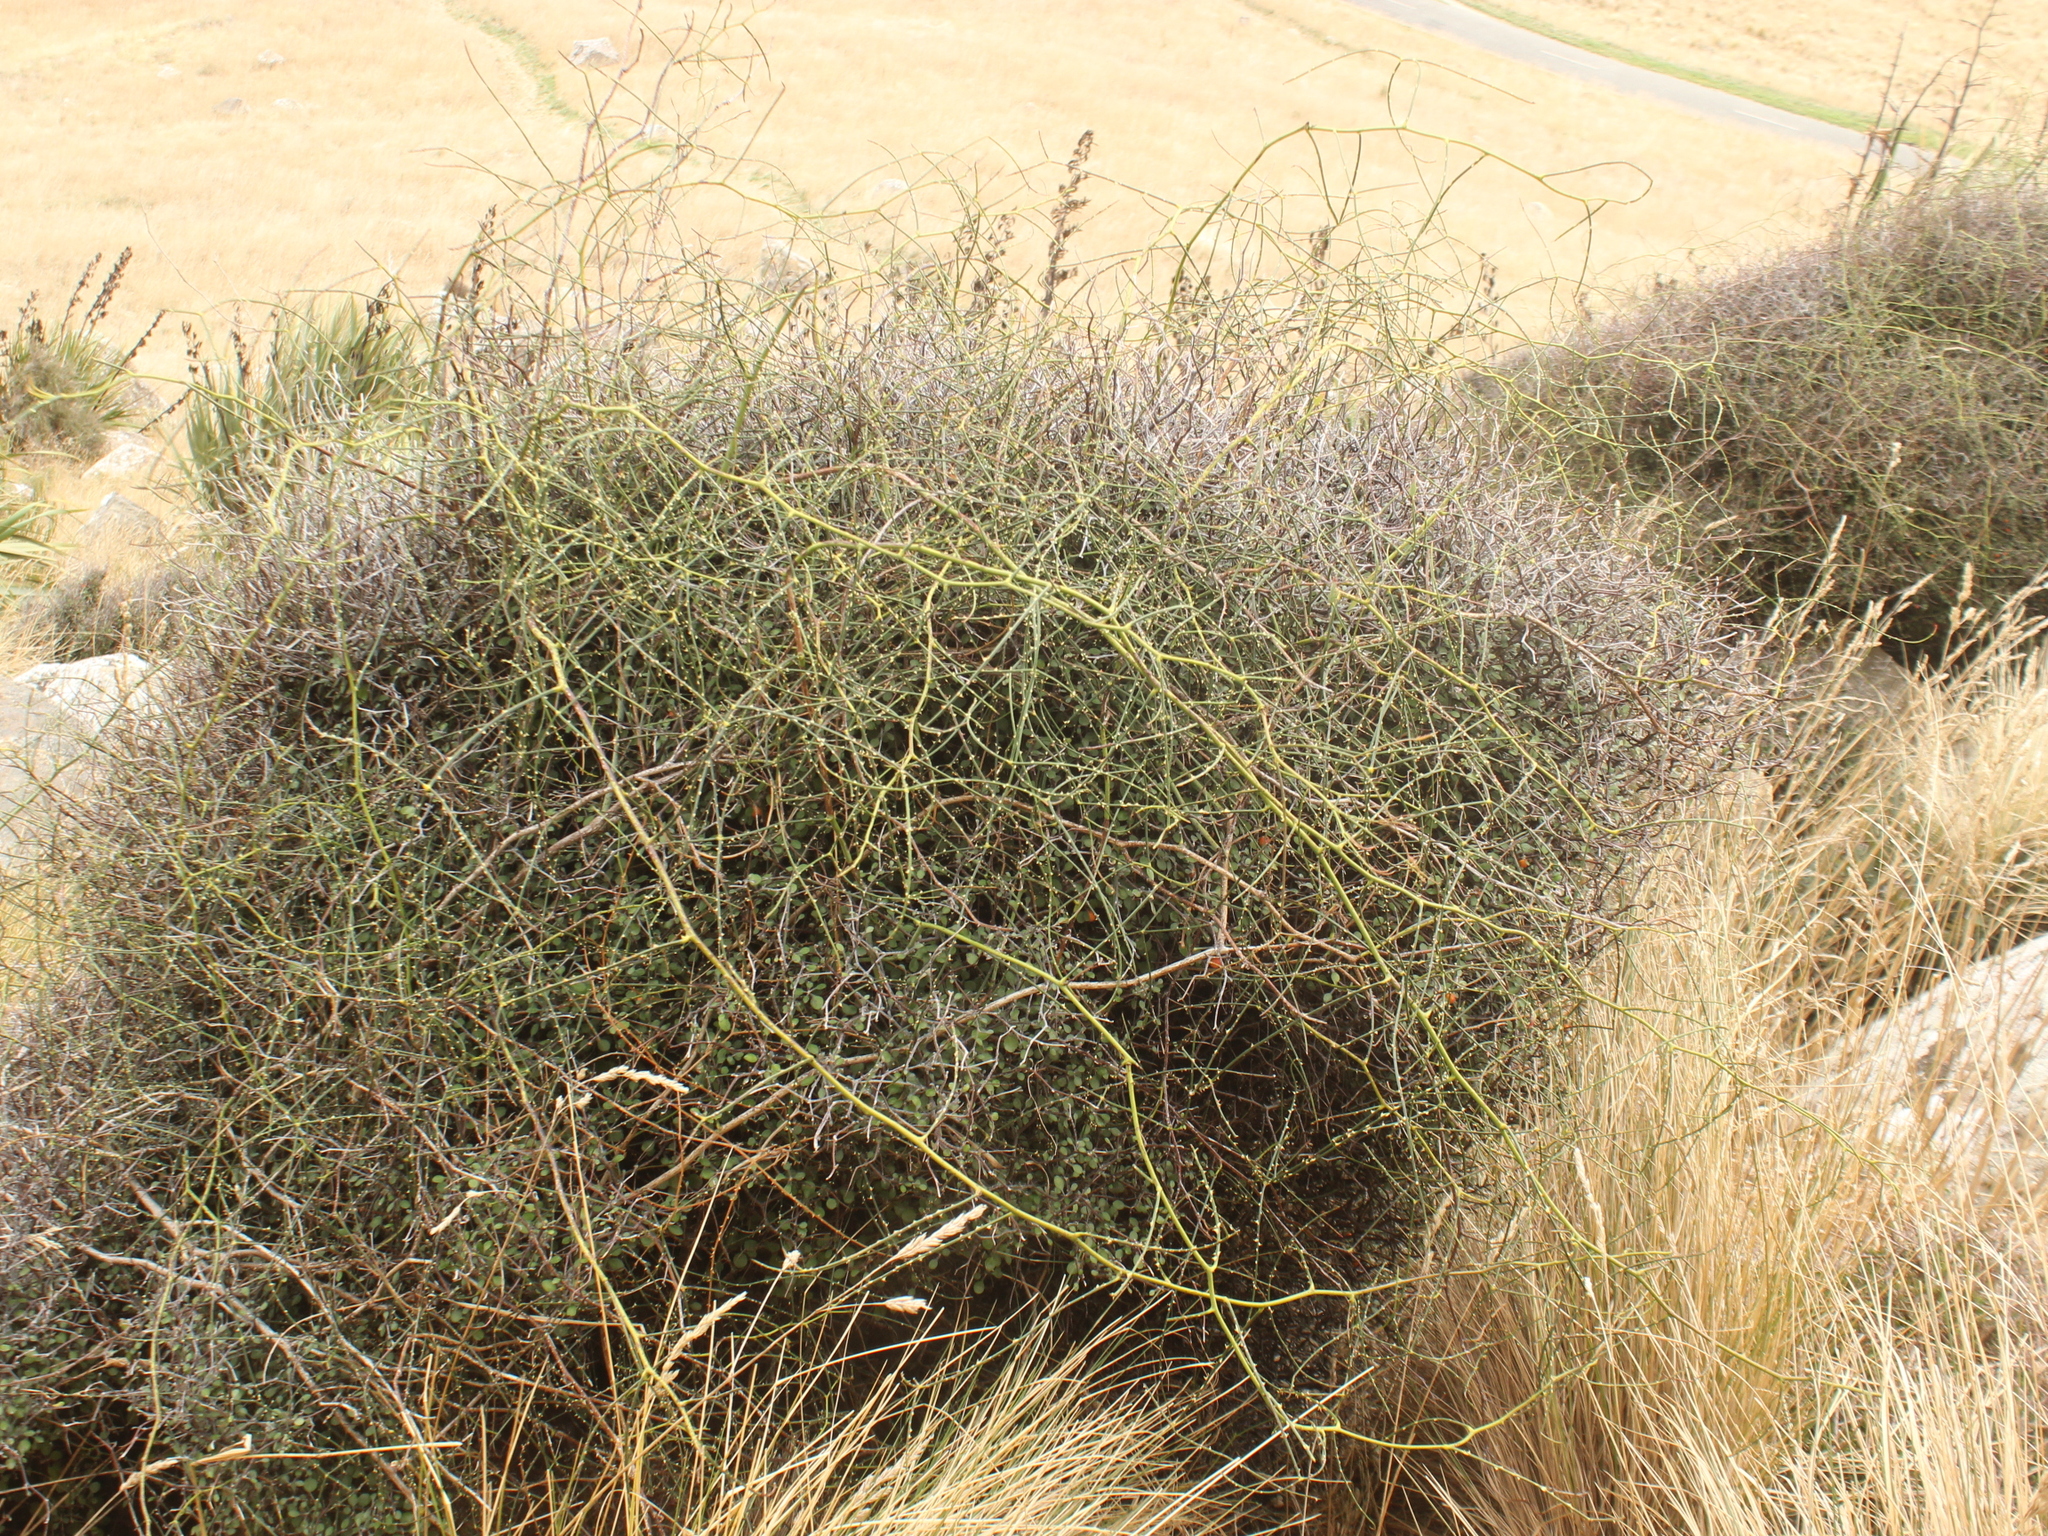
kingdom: Plantae
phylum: Tracheophyta
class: Magnoliopsida
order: Rosales
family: Rosaceae
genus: Rubus
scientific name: Rubus squarrosus
